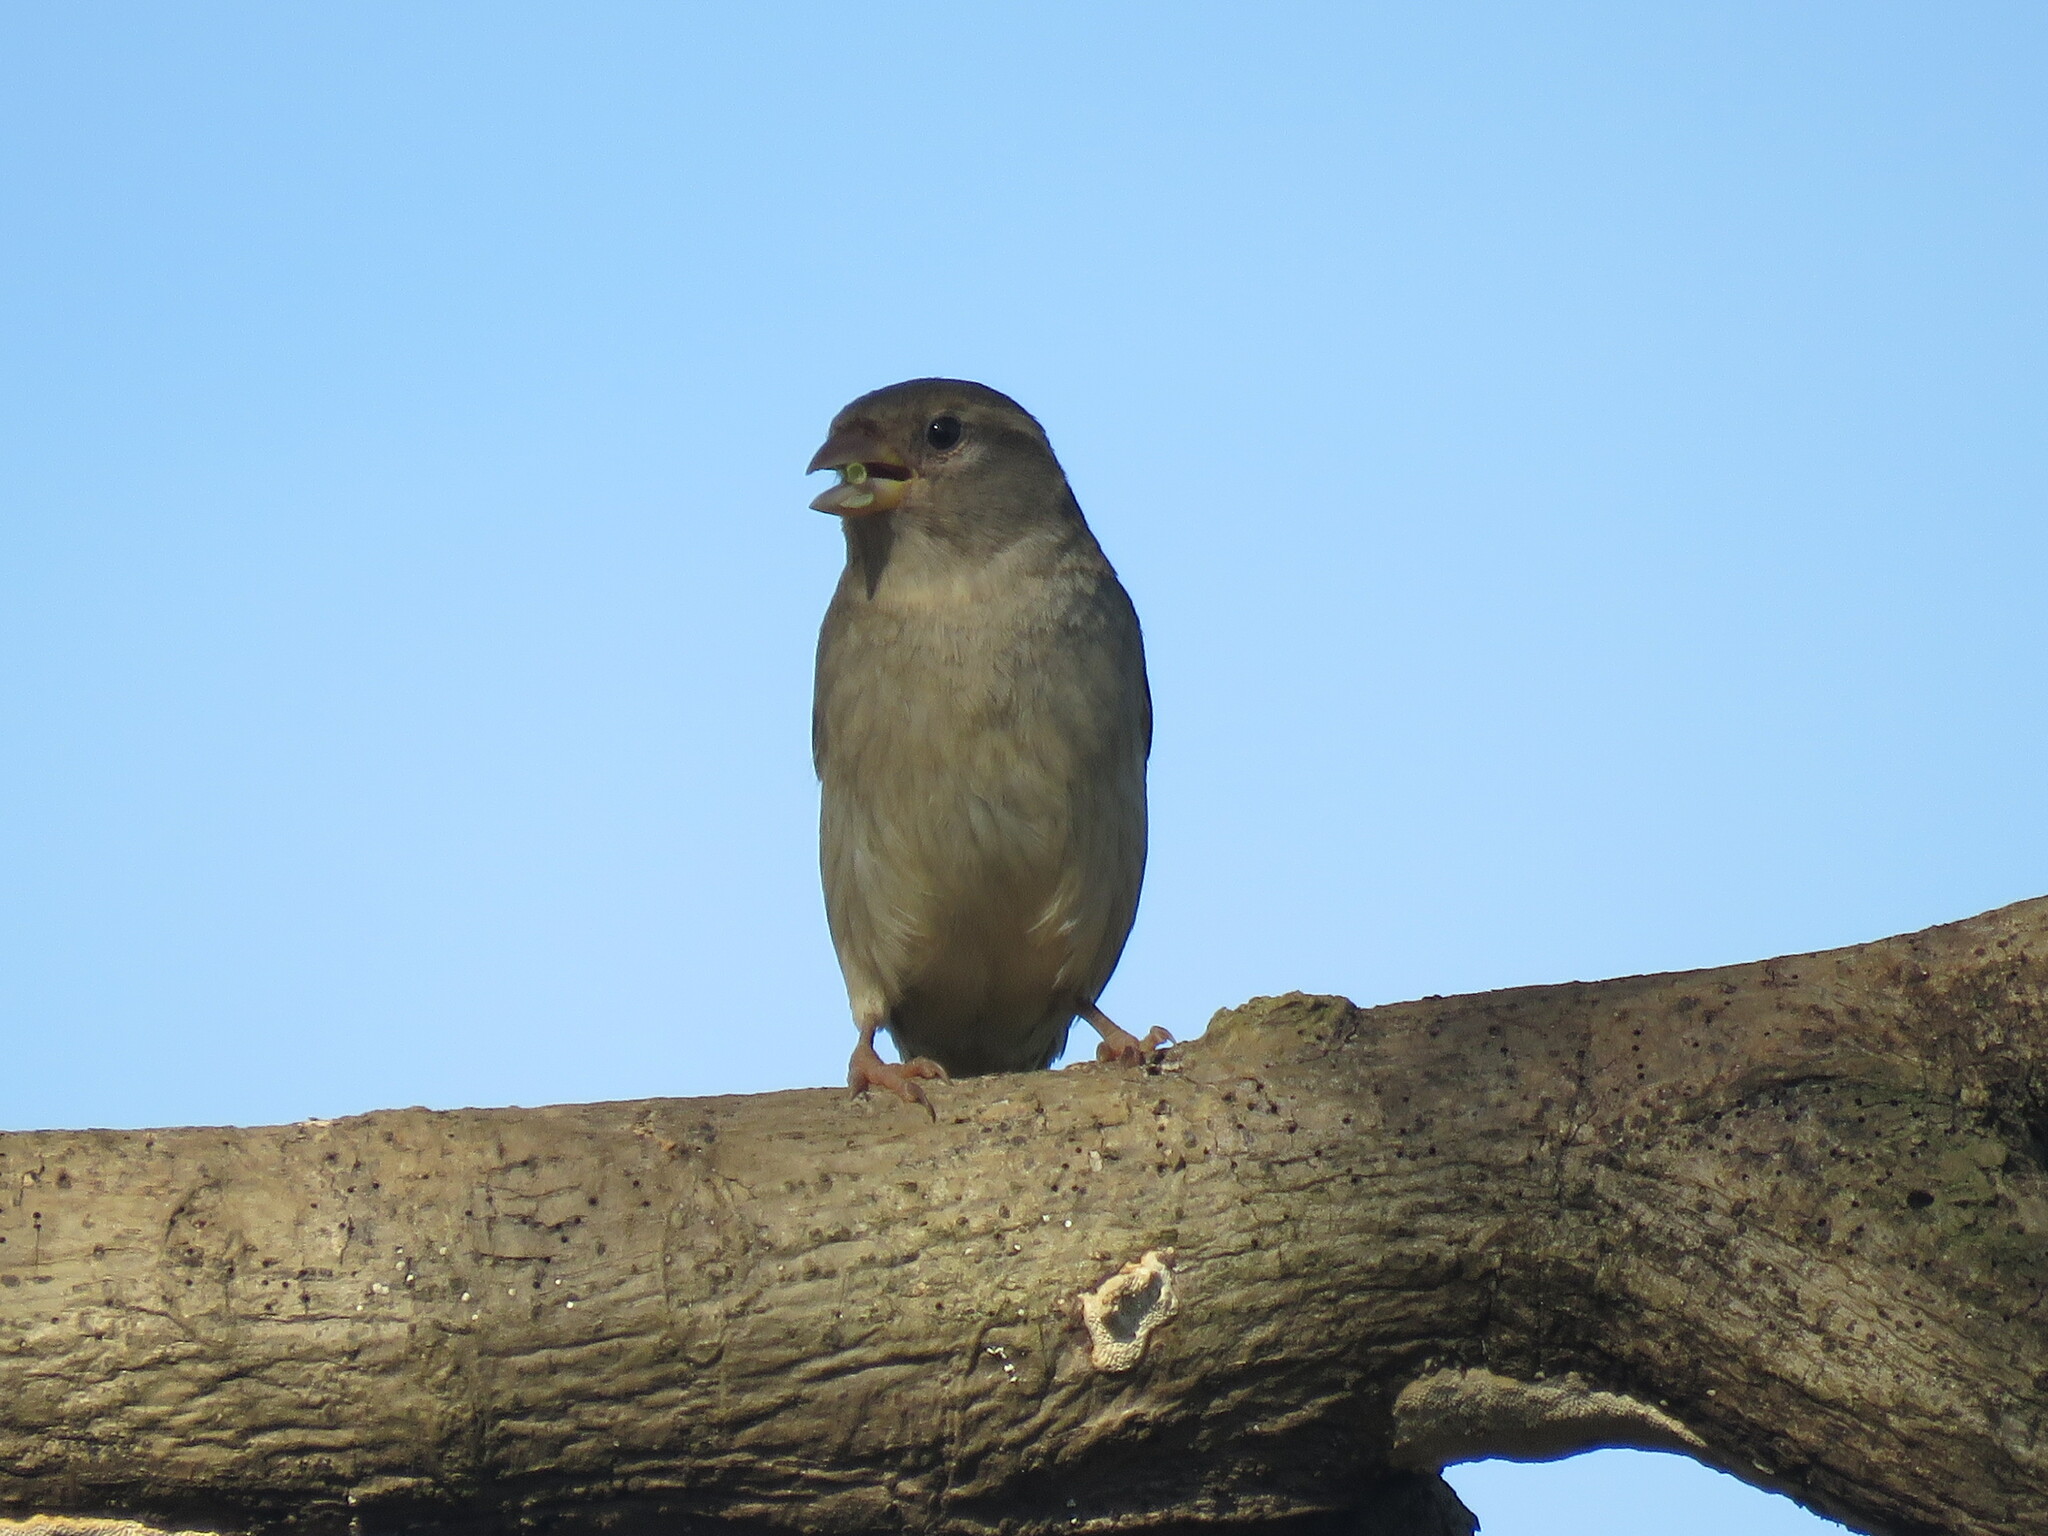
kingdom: Animalia
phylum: Chordata
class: Aves
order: Passeriformes
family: Passeridae
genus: Passer
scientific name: Passer domesticus
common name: House sparrow
